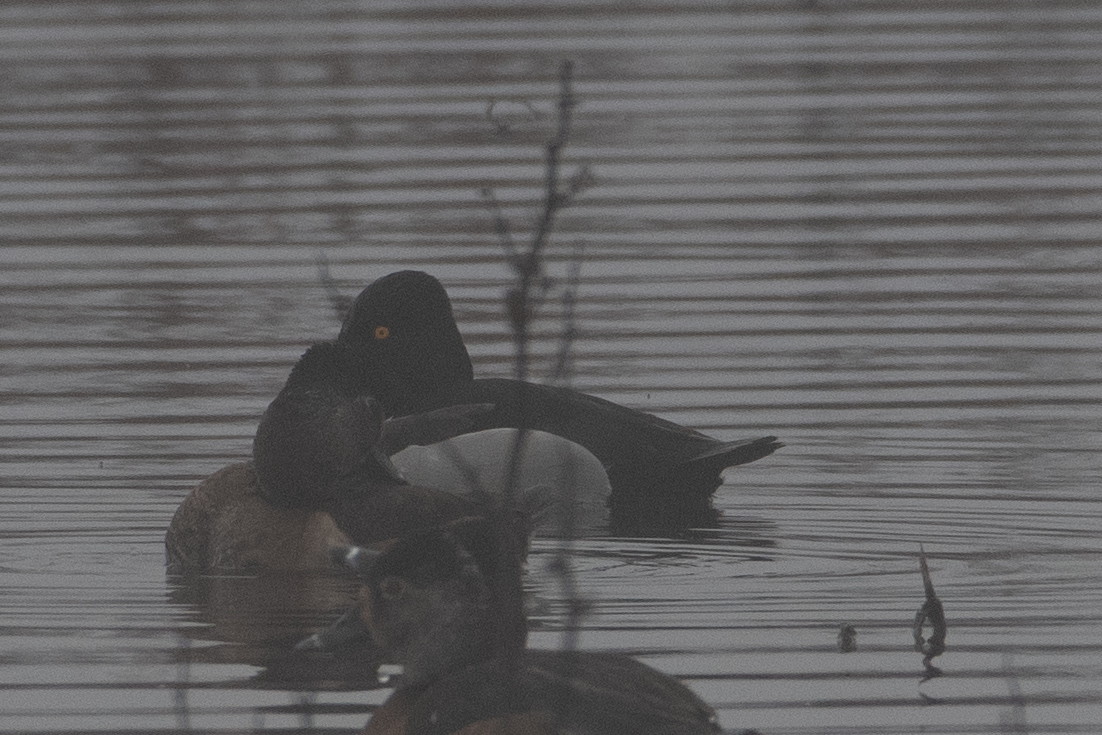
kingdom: Animalia
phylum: Chordata
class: Aves
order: Anseriformes
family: Anatidae
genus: Aythya
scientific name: Aythya collaris
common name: Ring-necked duck
